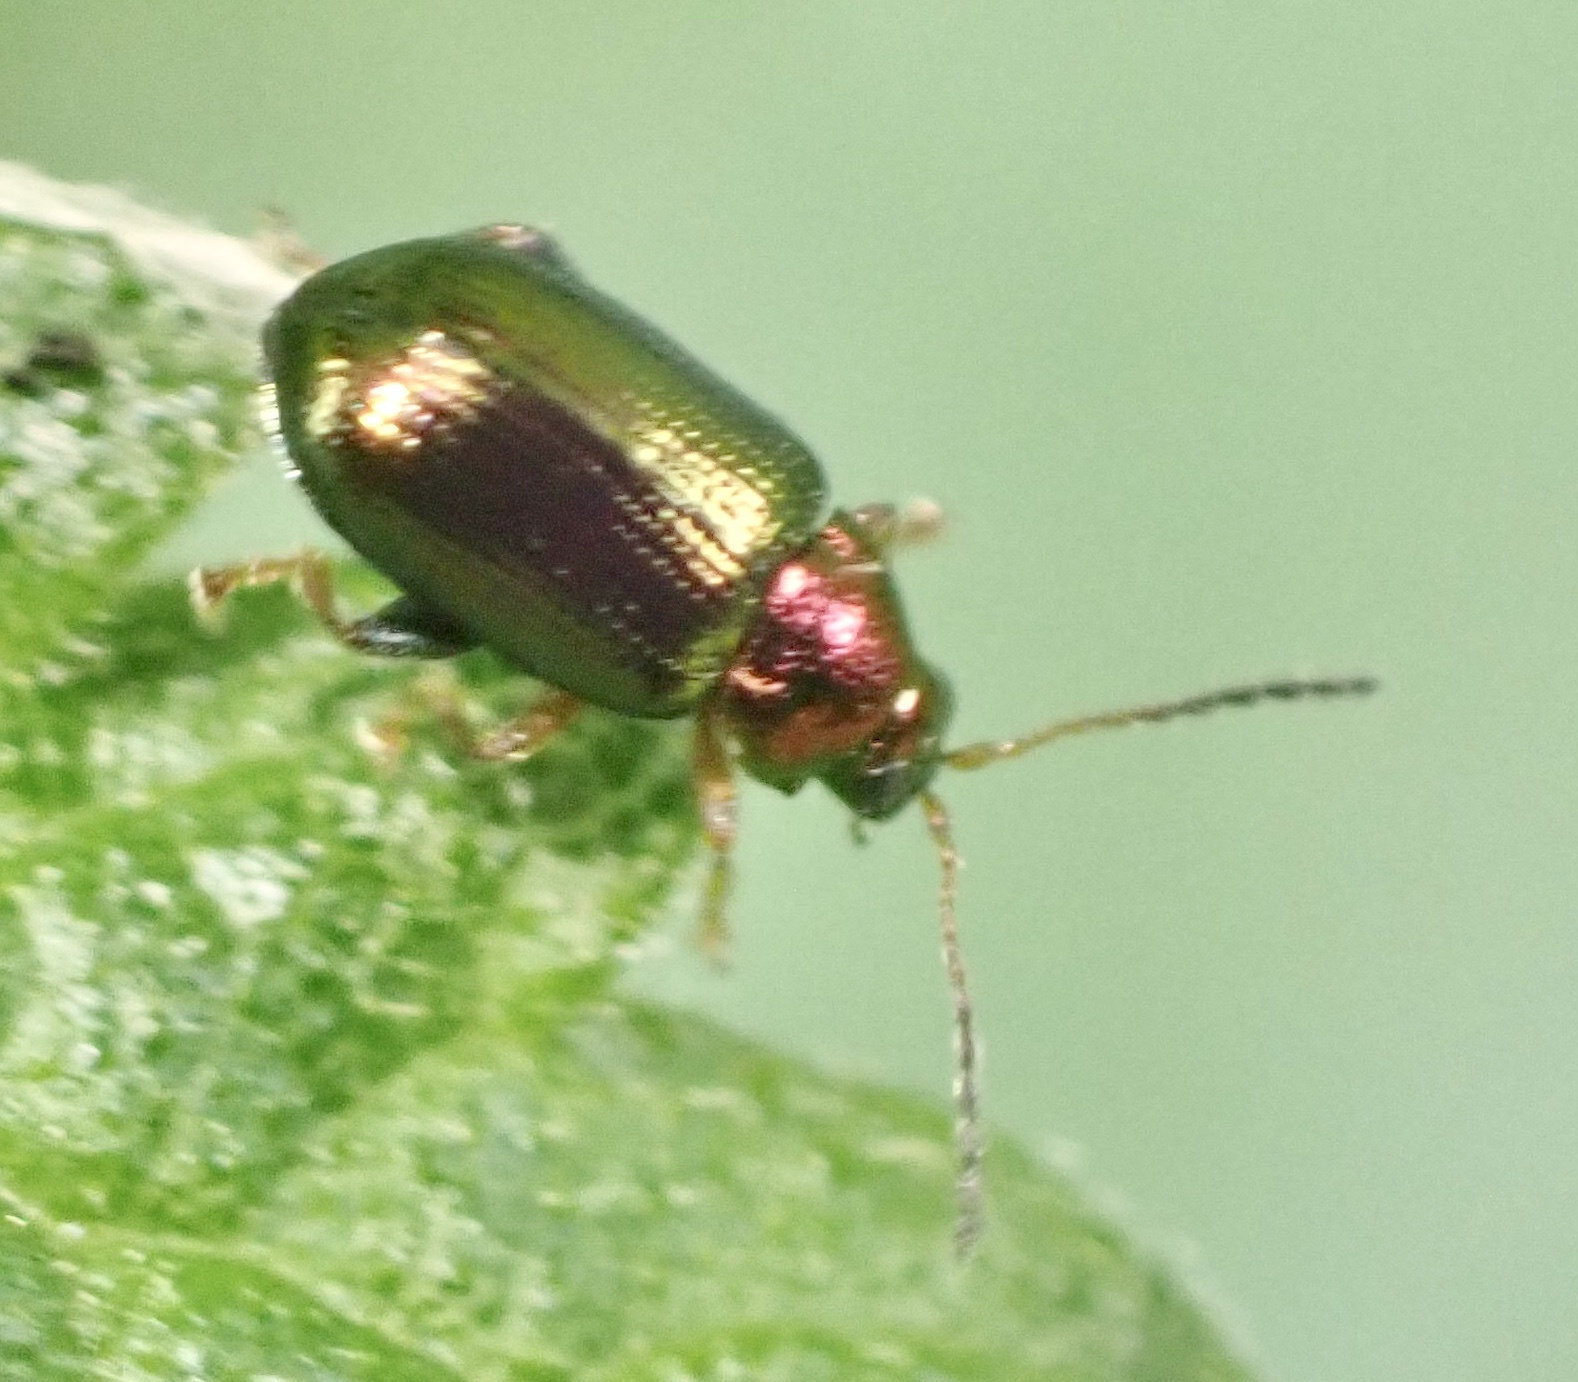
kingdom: Animalia
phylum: Arthropoda
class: Insecta
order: Coleoptera
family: Chrysomelidae
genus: Crepidodera
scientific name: Crepidodera aurata
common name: Willow flea beetle
